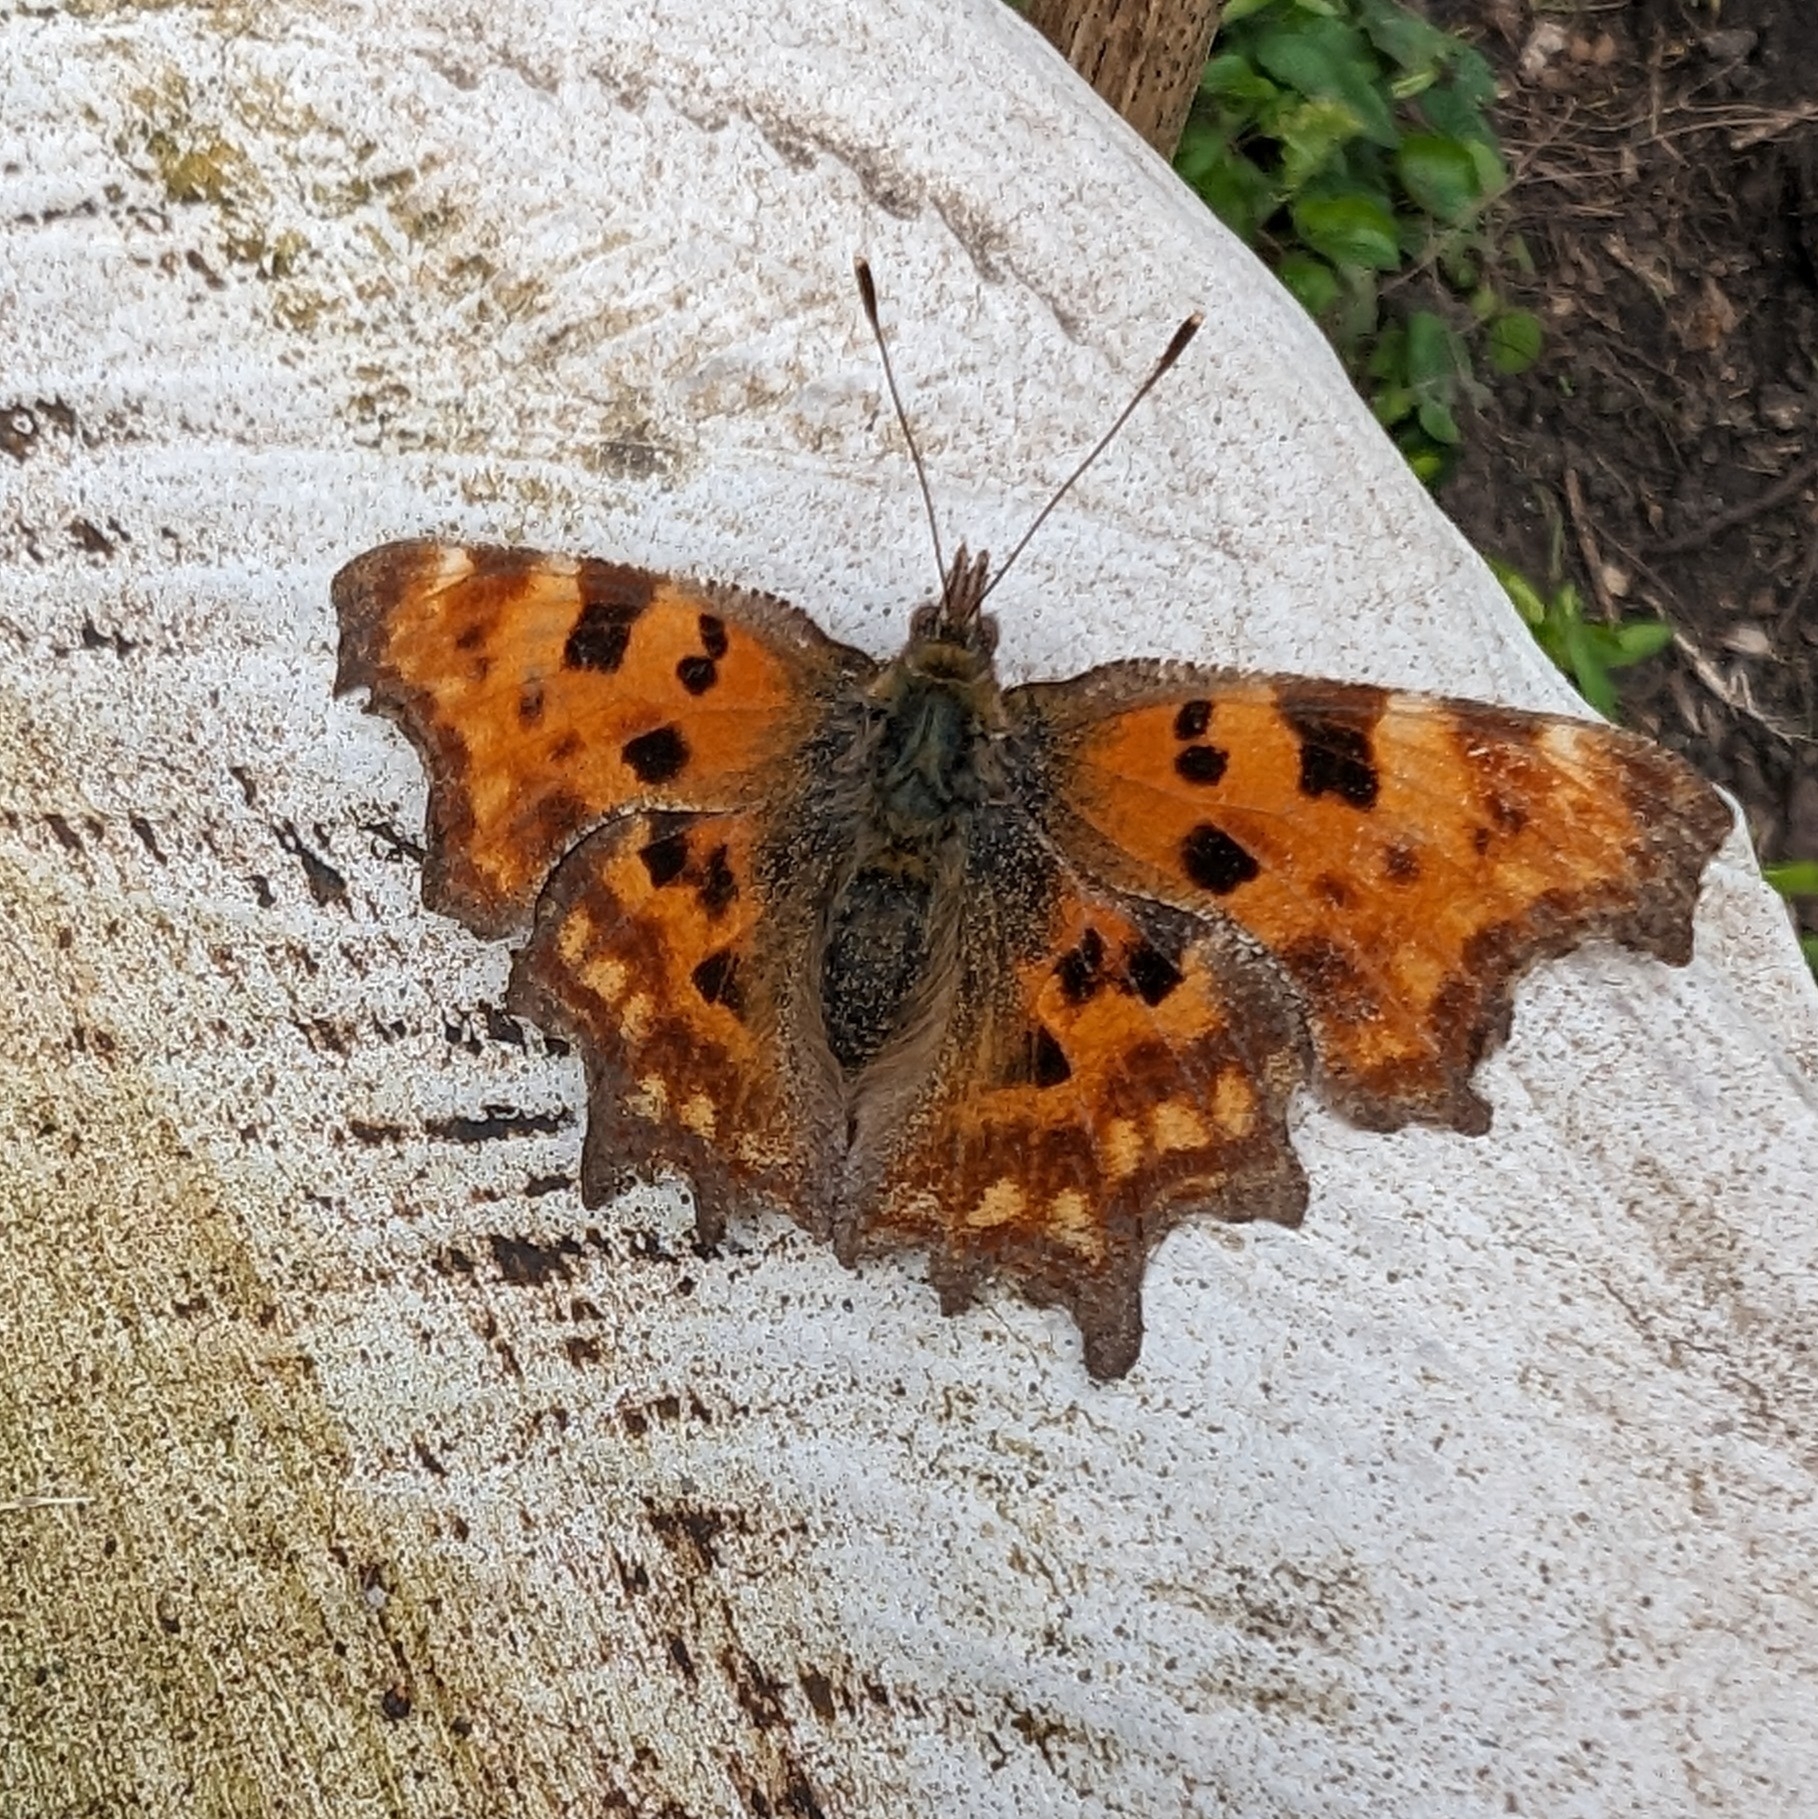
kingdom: Animalia
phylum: Arthropoda
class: Insecta
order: Lepidoptera
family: Nymphalidae
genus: Polygonia
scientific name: Polygonia c-album
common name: Comma
